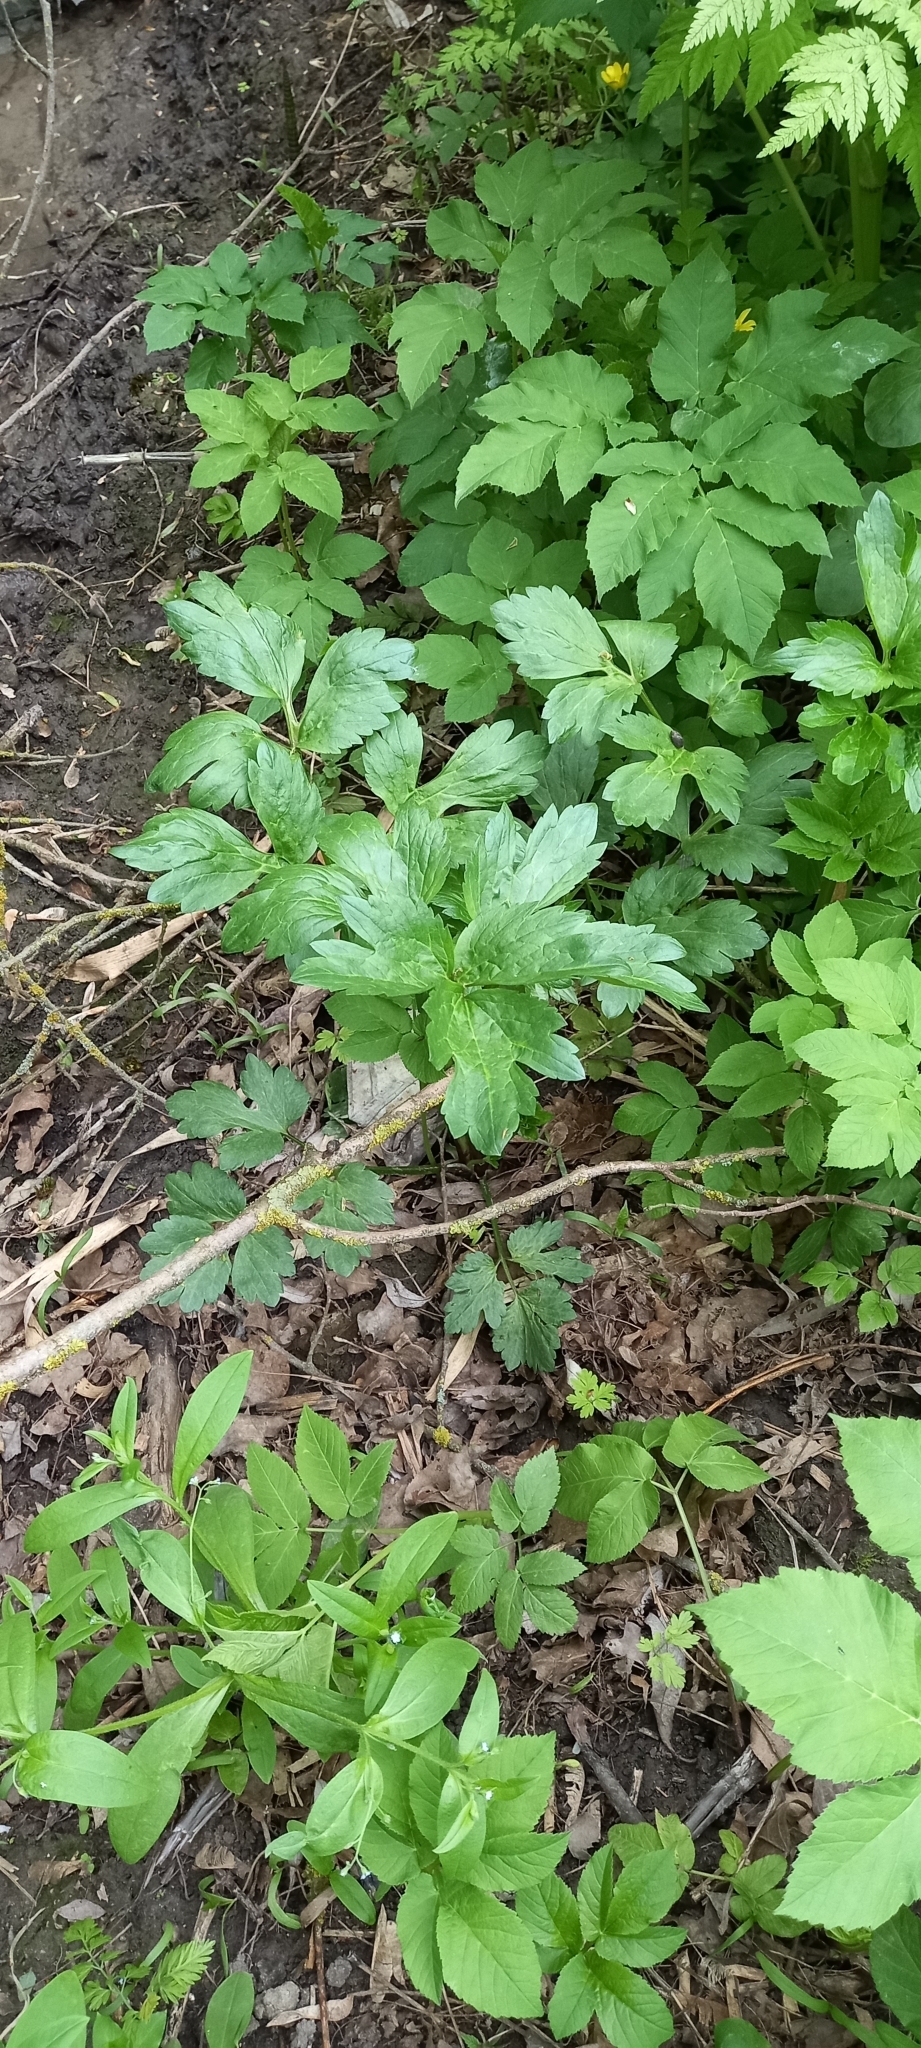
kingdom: Plantae
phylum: Tracheophyta
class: Magnoliopsida
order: Ranunculales
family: Ranunculaceae
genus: Ranunculus
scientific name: Ranunculus repens
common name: Creeping buttercup
